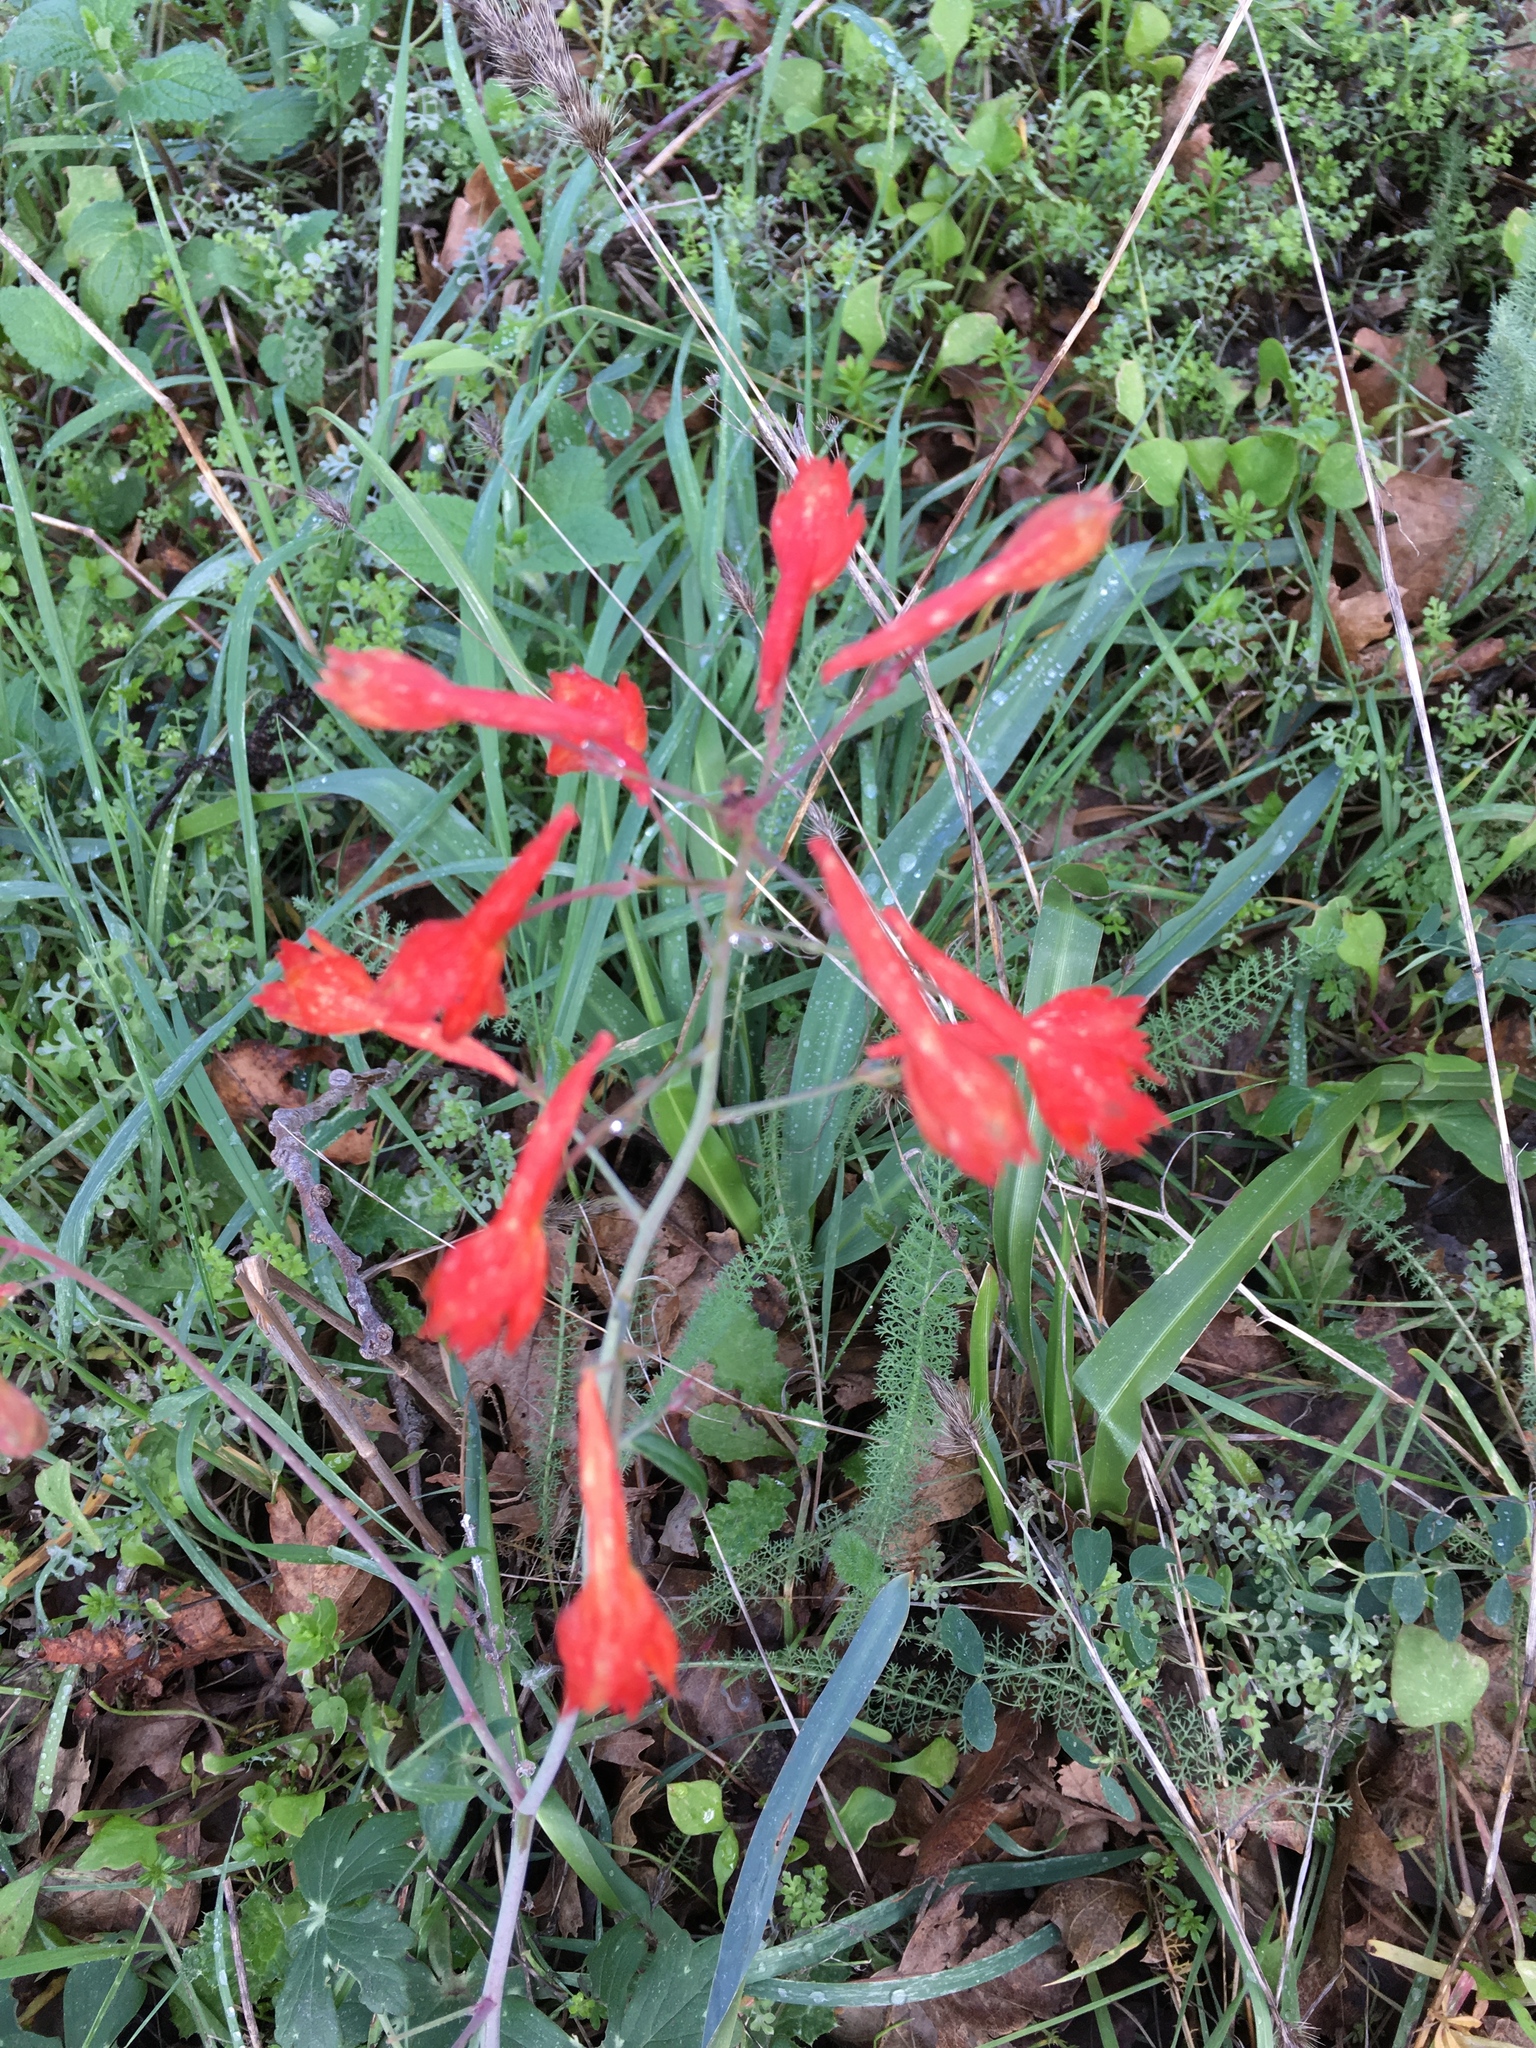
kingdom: Plantae
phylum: Tracheophyta
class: Magnoliopsida
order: Ranunculales
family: Ranunculaceae
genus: Delphinium
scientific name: Delphinium nudicaule
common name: Red larkspur
